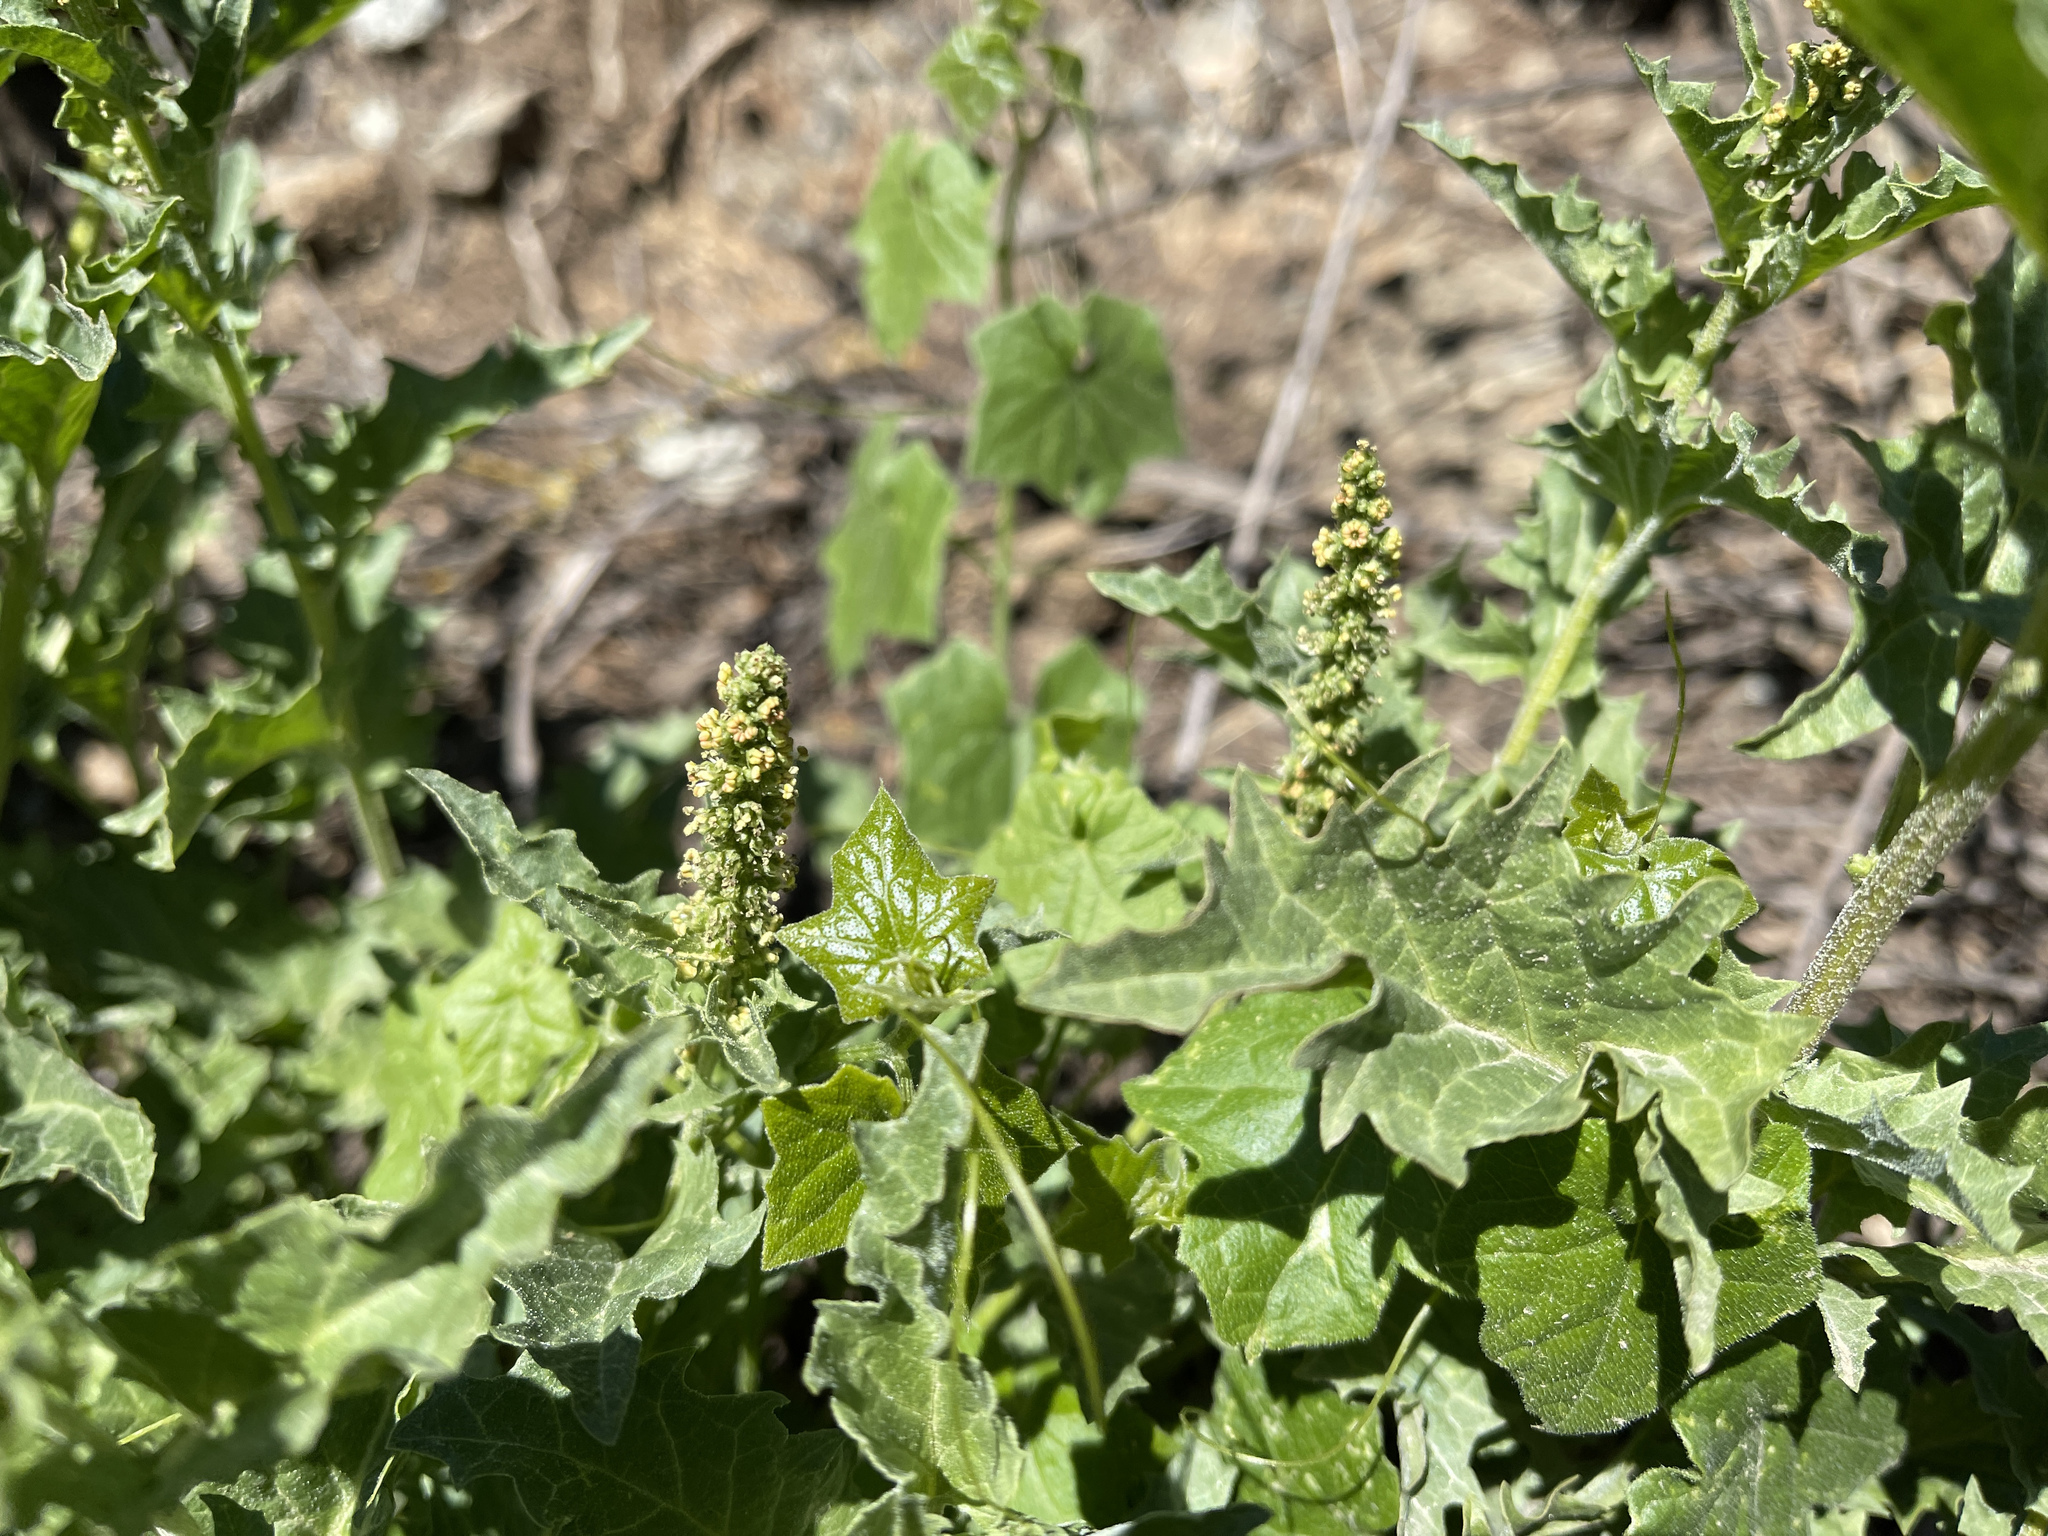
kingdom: Plantae
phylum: Tracheophyta
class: Magnoliopsida
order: Caryophyllales
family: Amaranthaceae
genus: Blitum
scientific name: Blitum californicum
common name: California goosefoot
